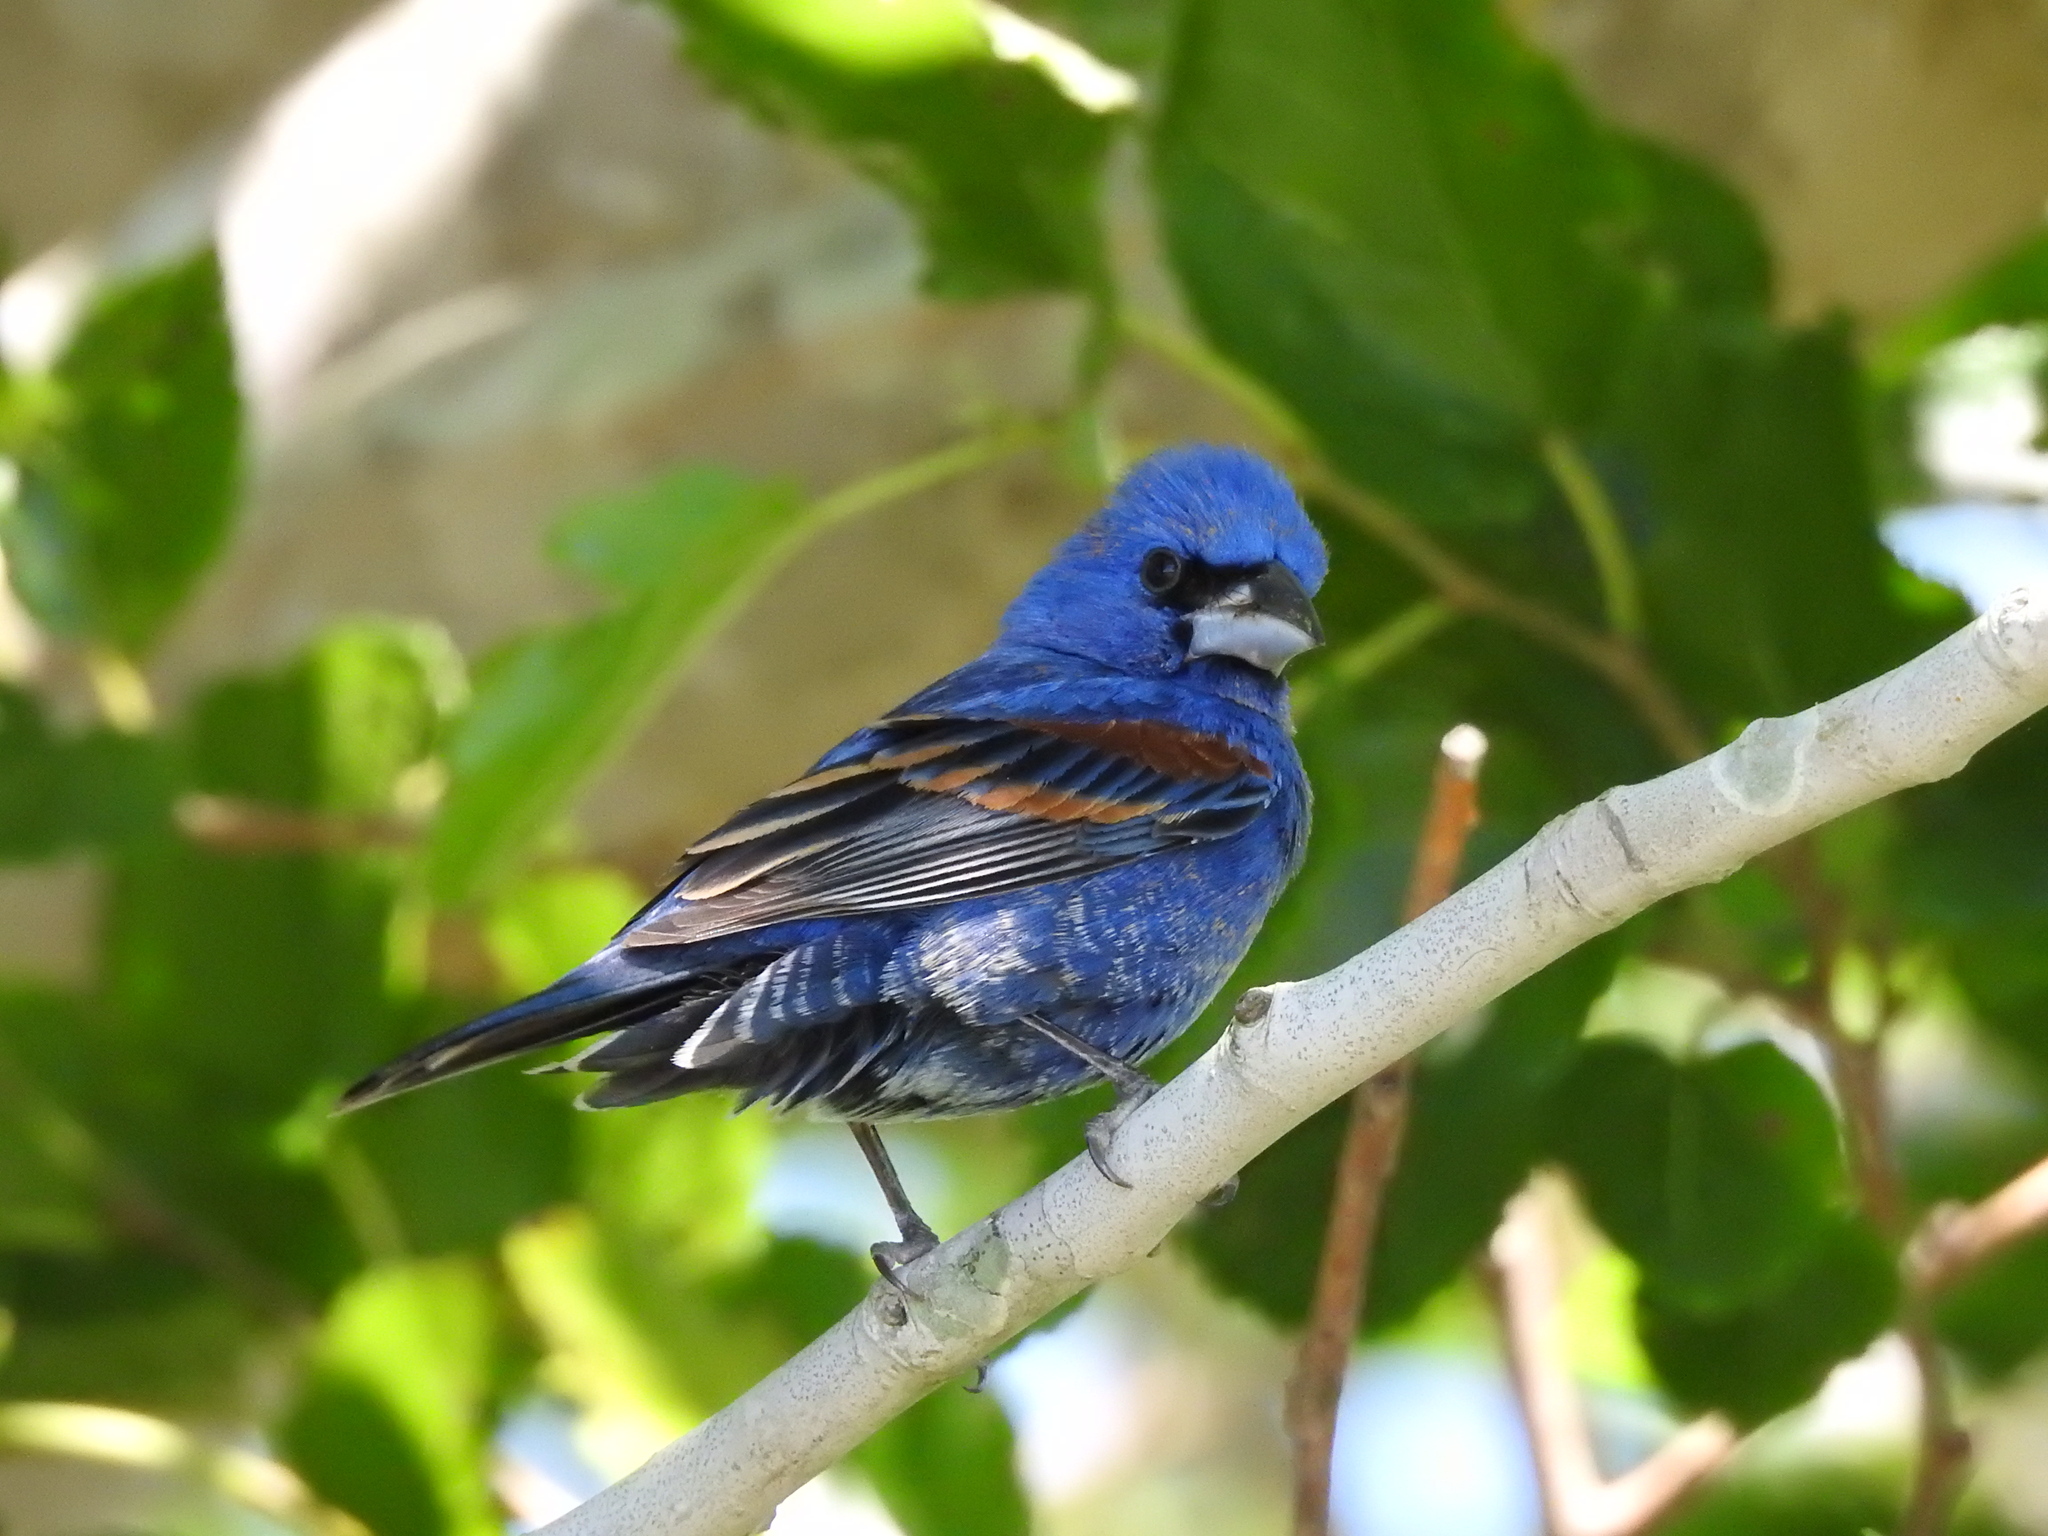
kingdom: Animalia
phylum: Chordata
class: Aves
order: Passeriformes
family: Cardinalidae
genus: Passerina
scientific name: Passerina caerulea
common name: Blue grosbeak
